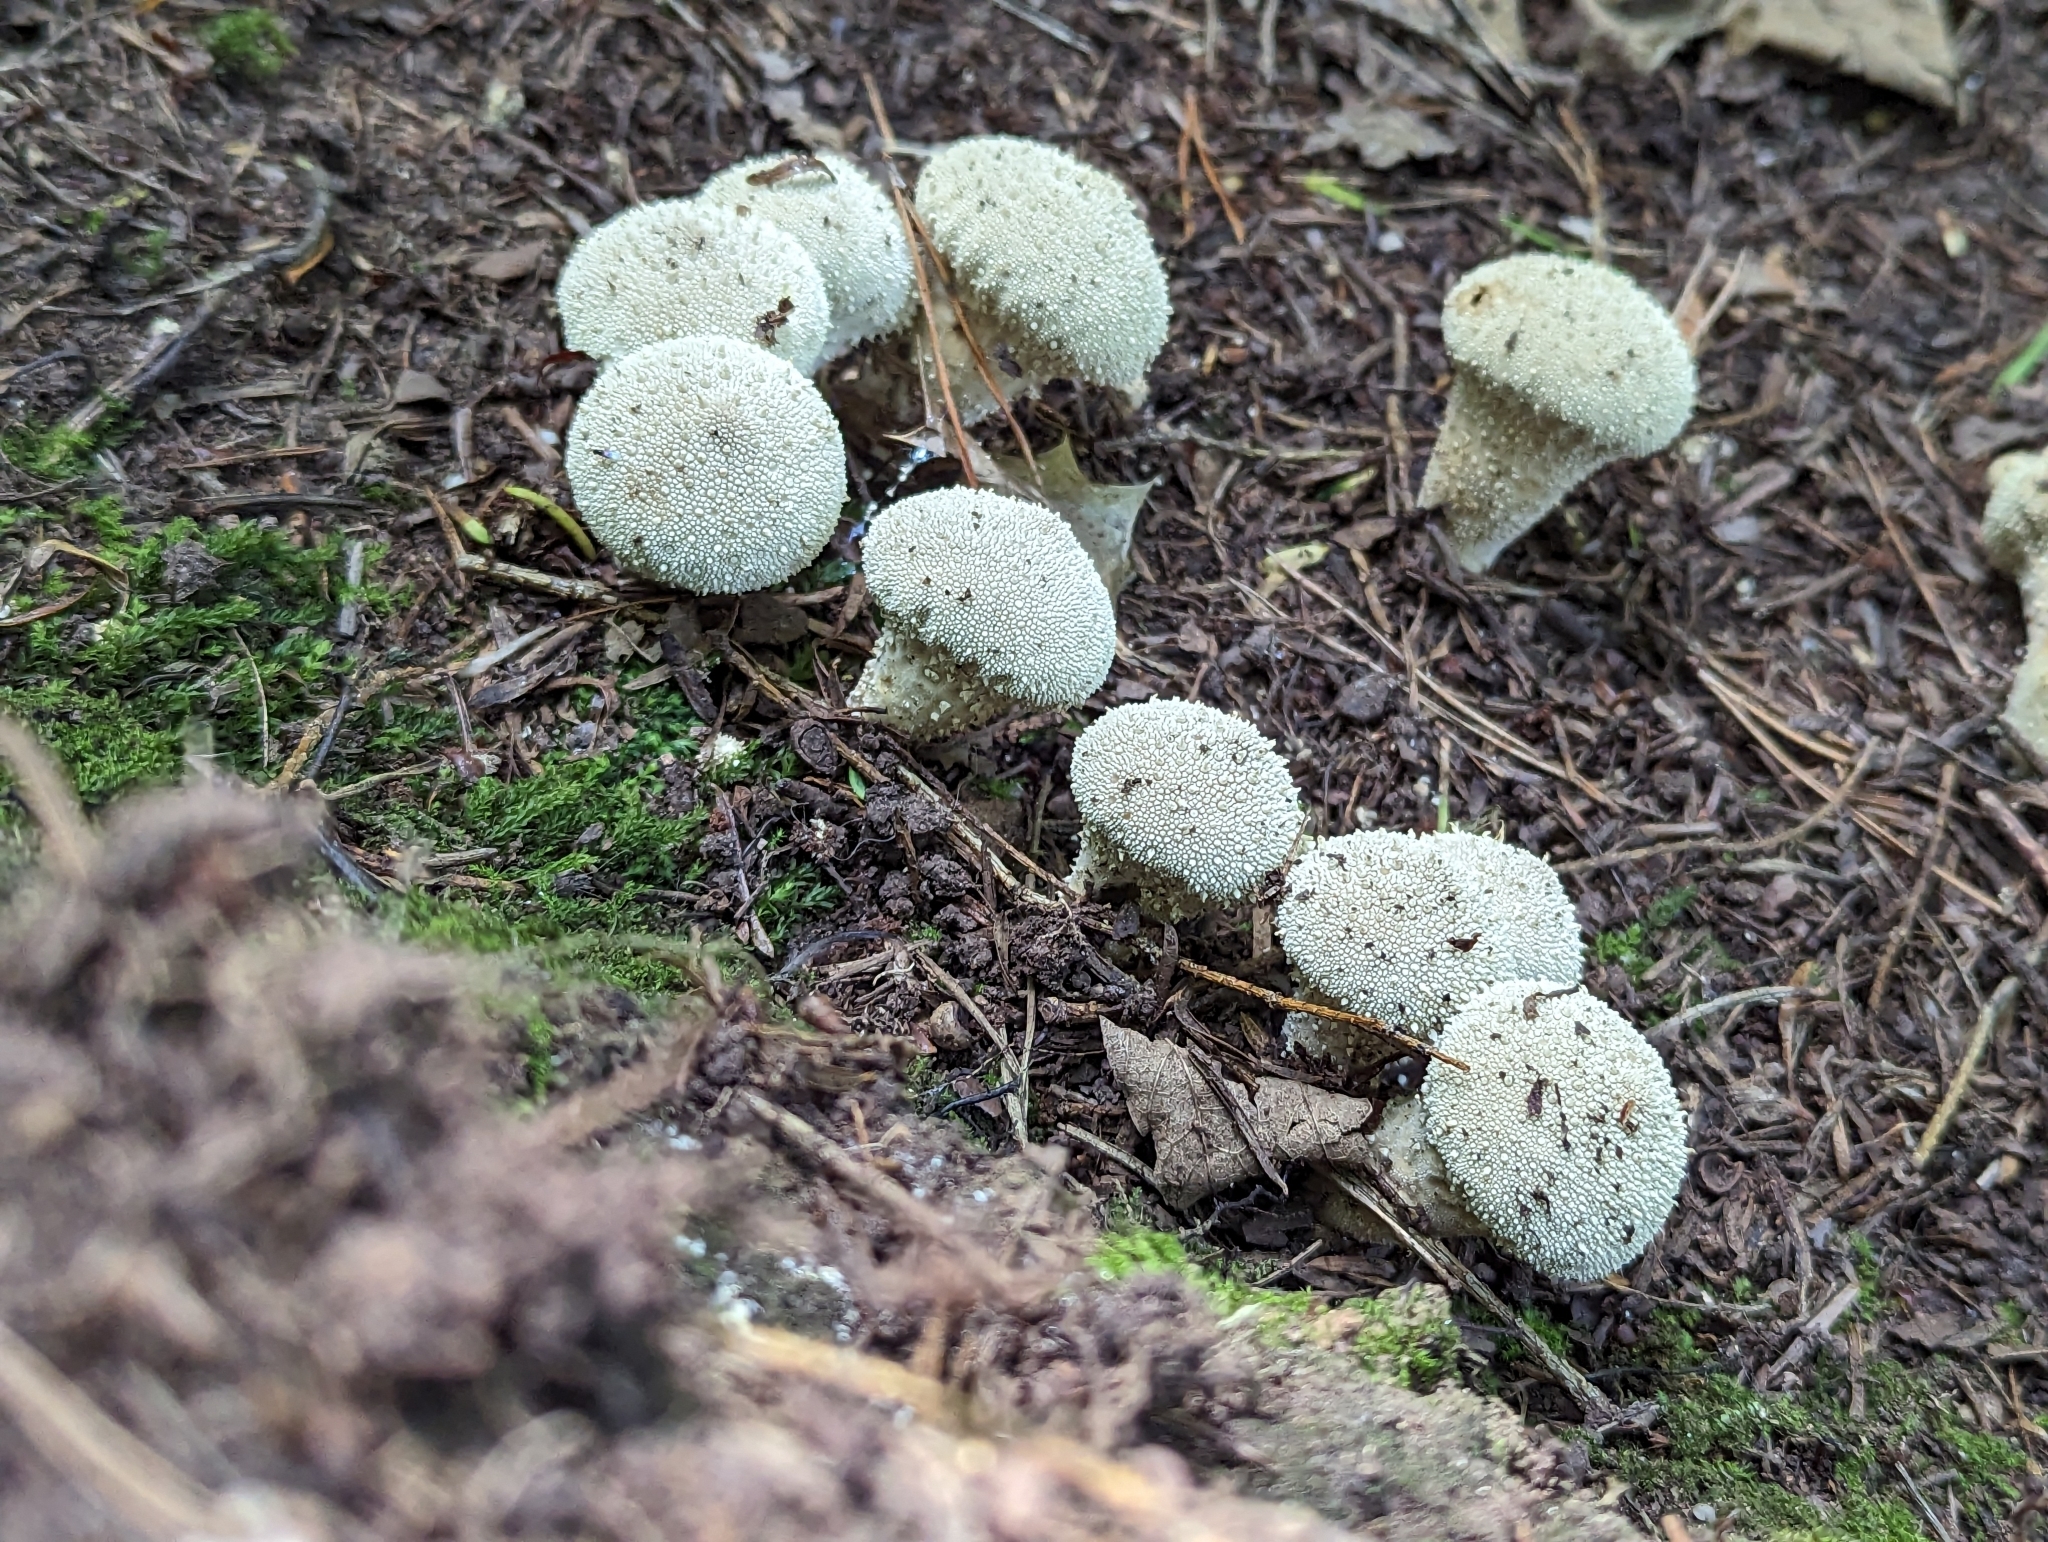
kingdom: Fungi
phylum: Basidiomycota
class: Agaricomycetes
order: Agaricales
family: Lycoperdaceae
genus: Lycoperdon
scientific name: Lycoperdon perlatum
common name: Common puffball
